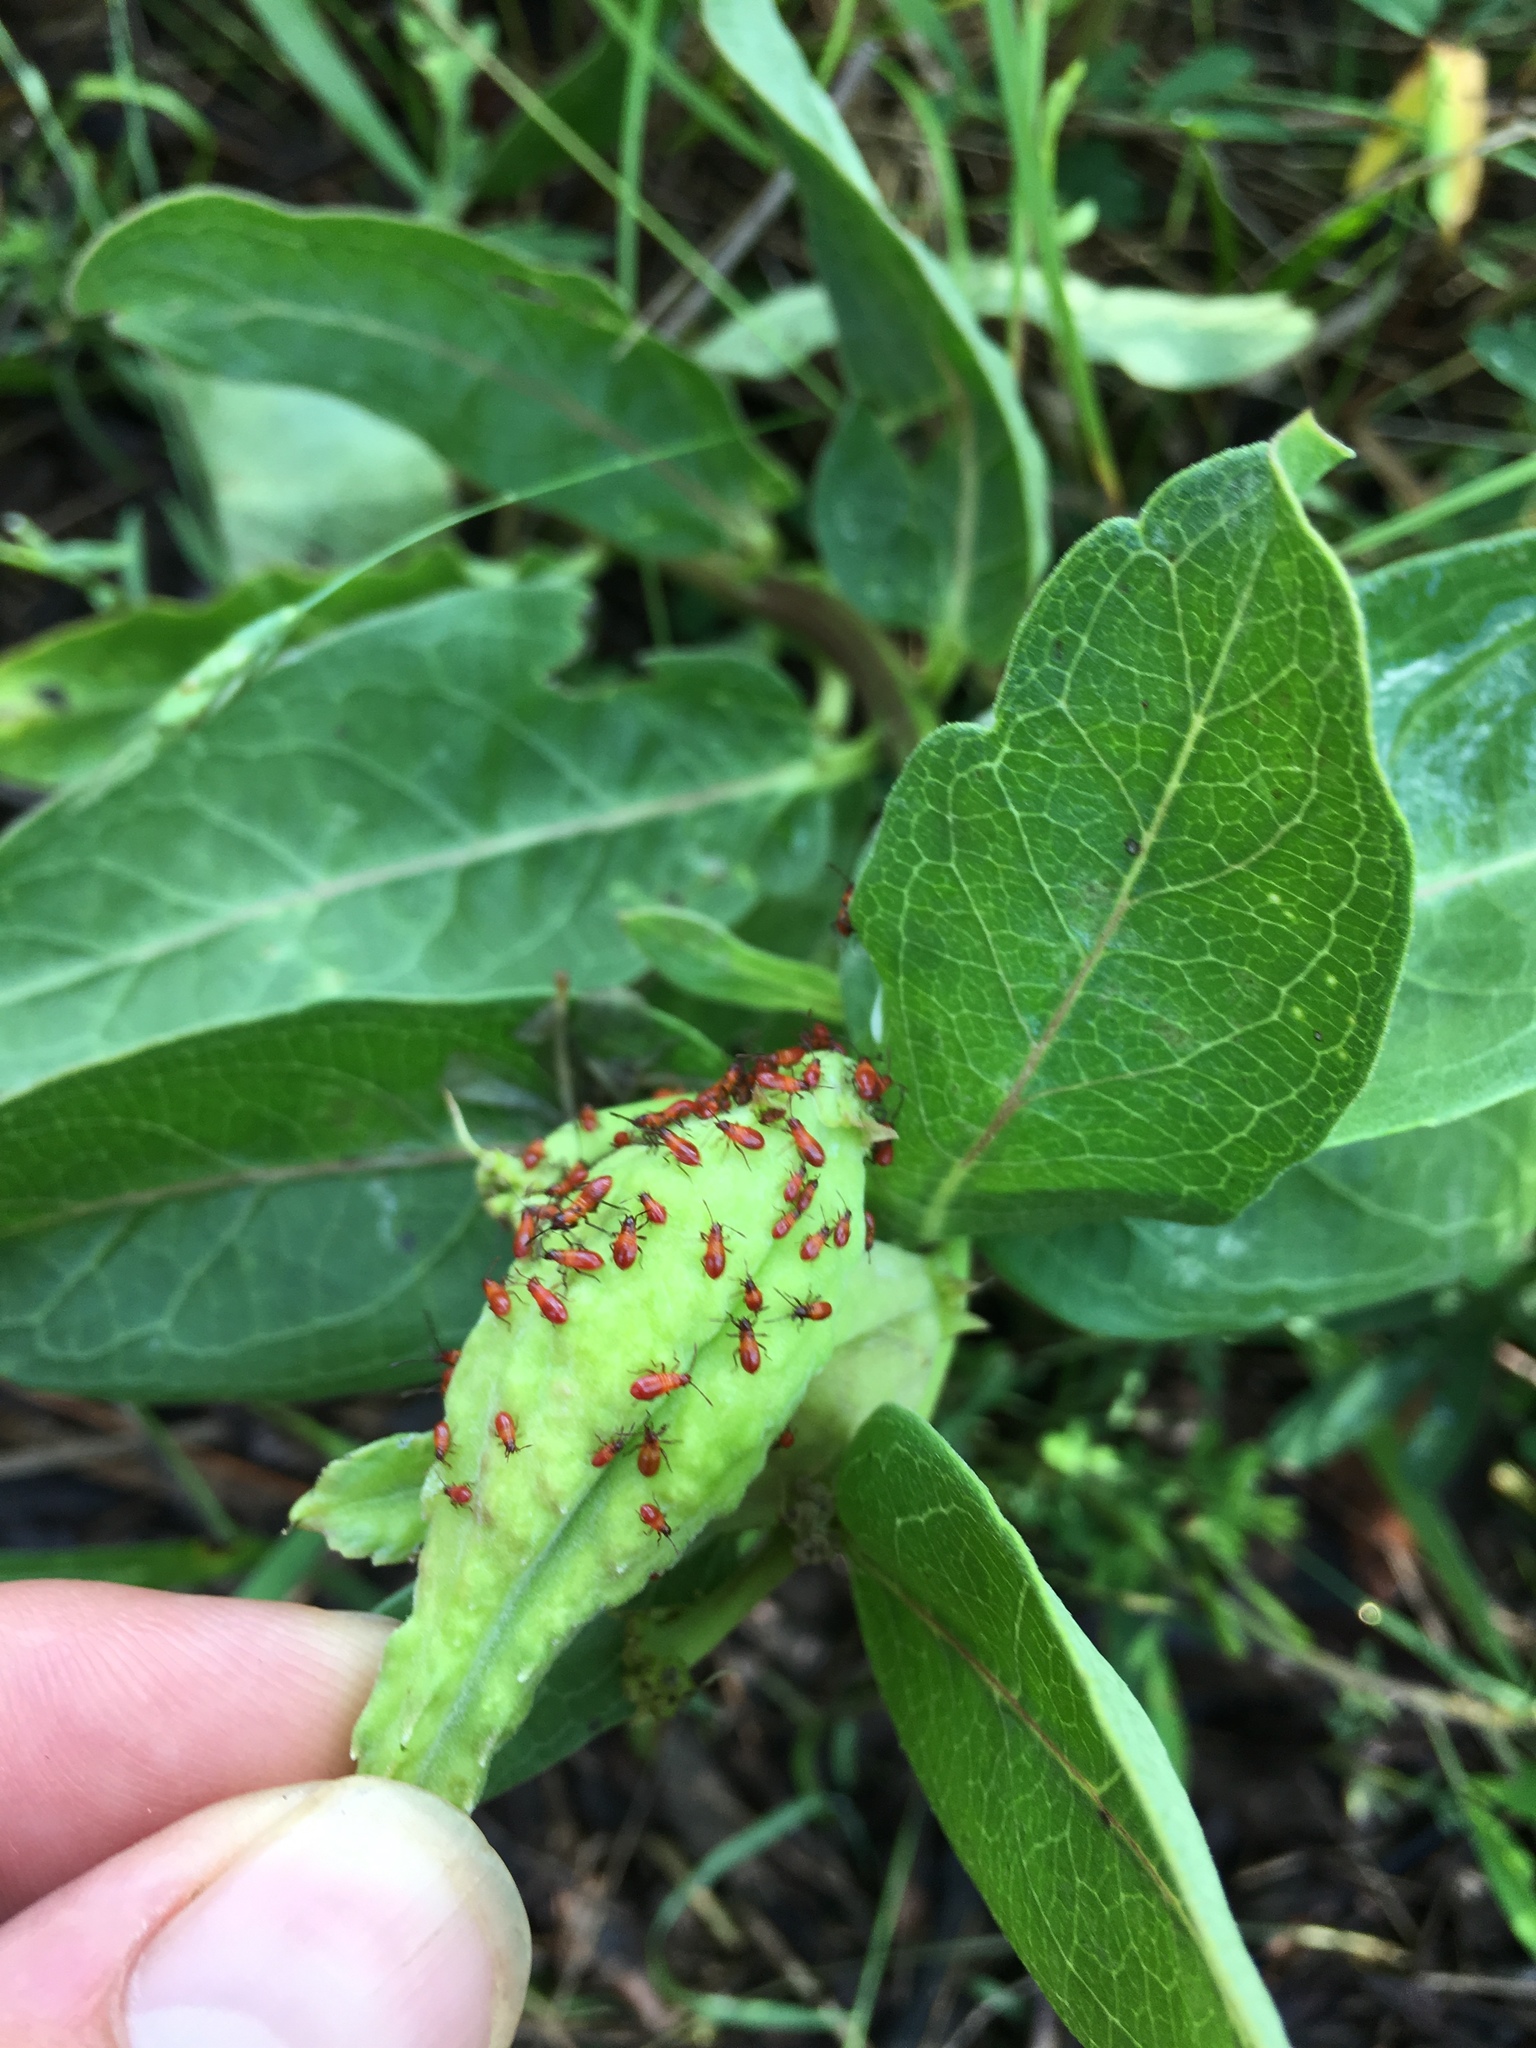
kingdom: Animalia
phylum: Arthropoda
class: Insecta
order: Hemiptera
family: Lygaeidae
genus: Oncopeltus
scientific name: Oncopeltus fasciatus
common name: Large milkweed bug
